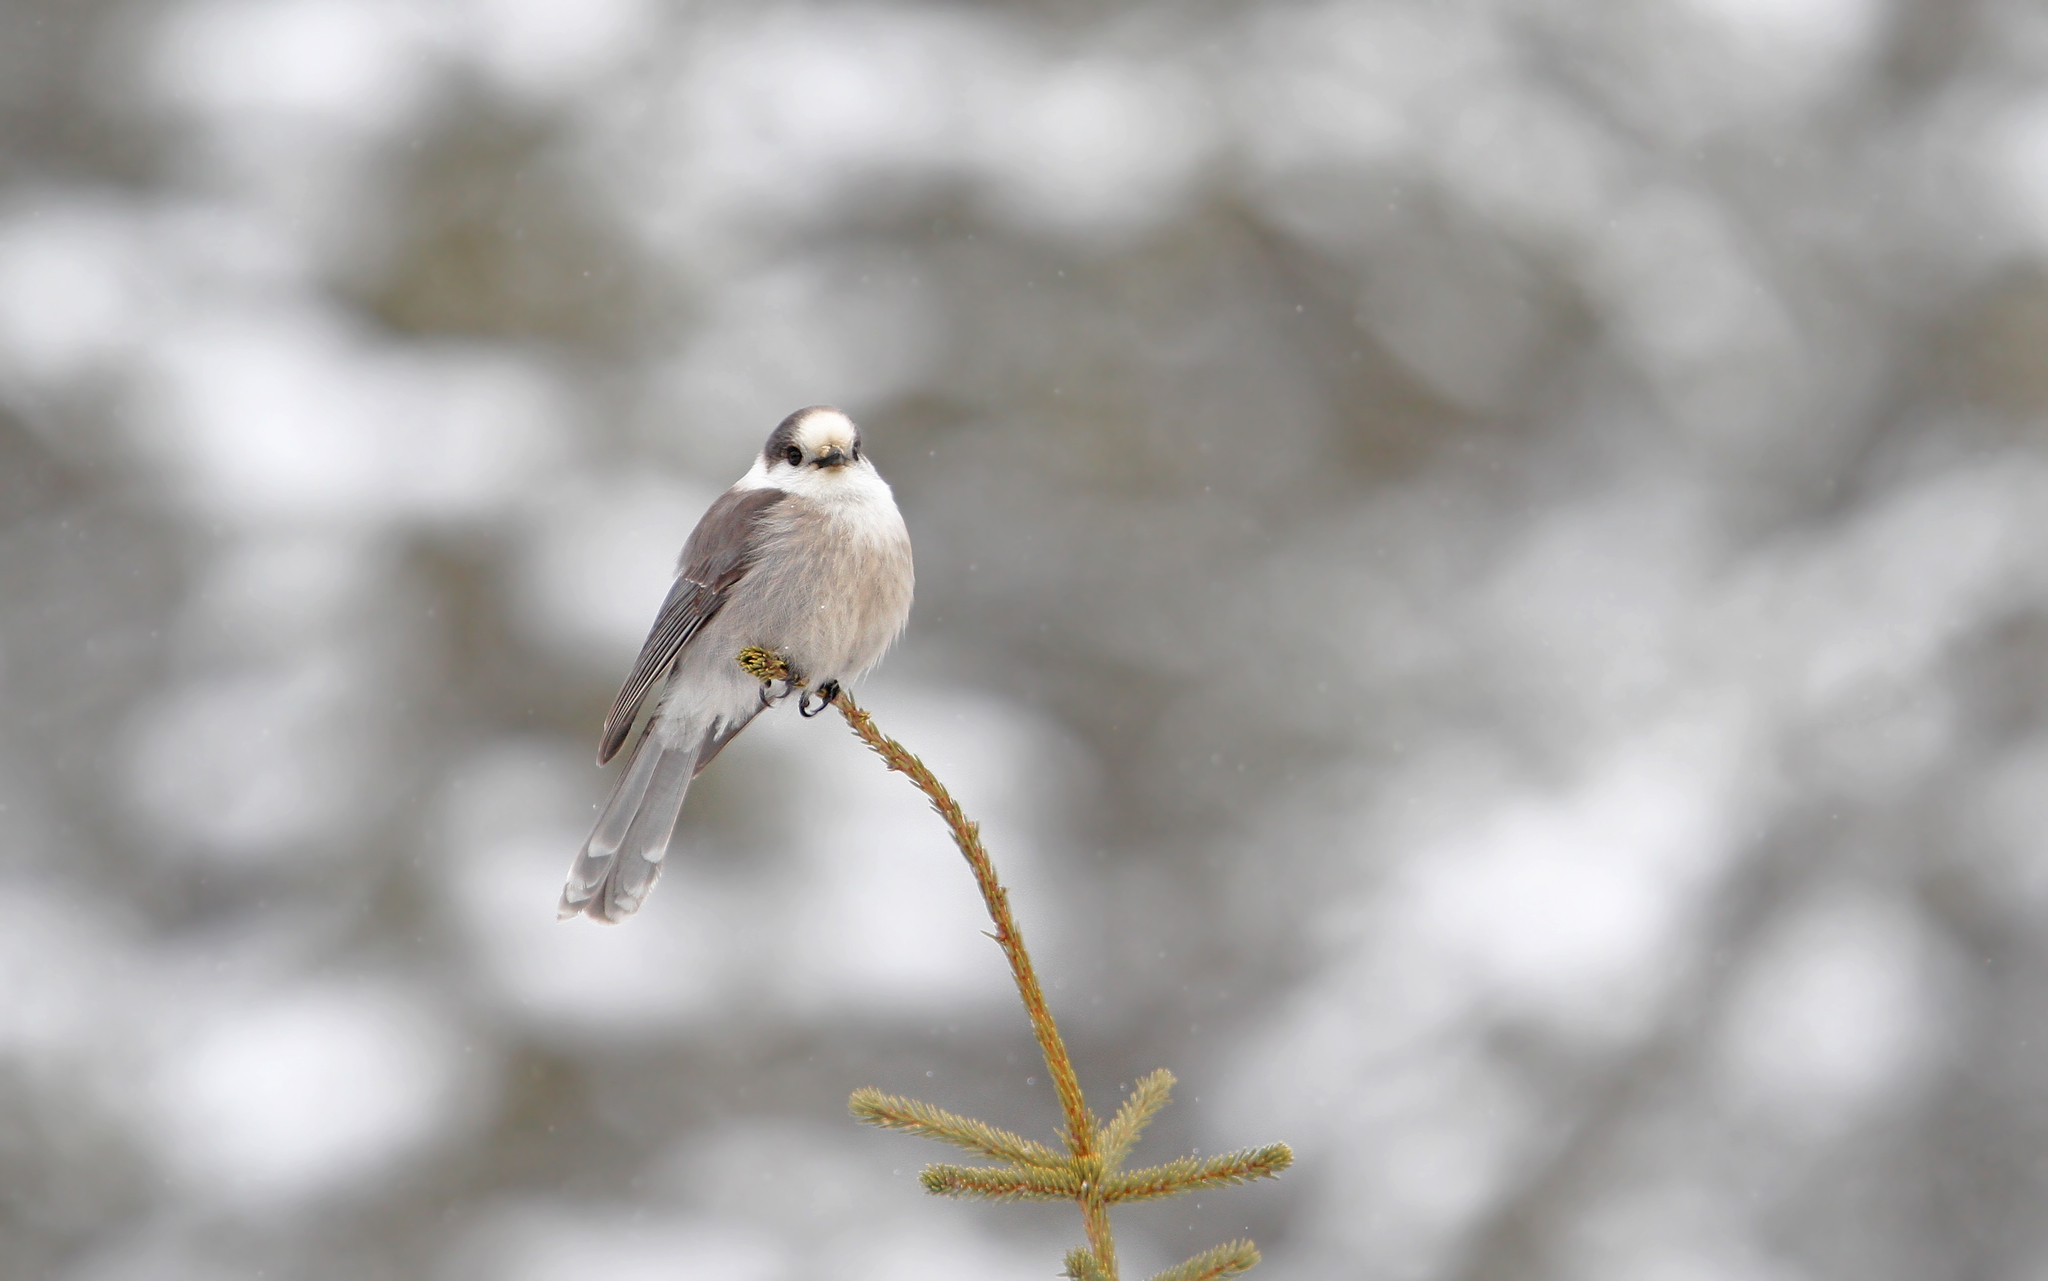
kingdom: Animalia
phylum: Chordata
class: Aves
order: Passeriformes
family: Corvidae
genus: Perisoreus
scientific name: Perisoreus canadensis
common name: Gray jay
